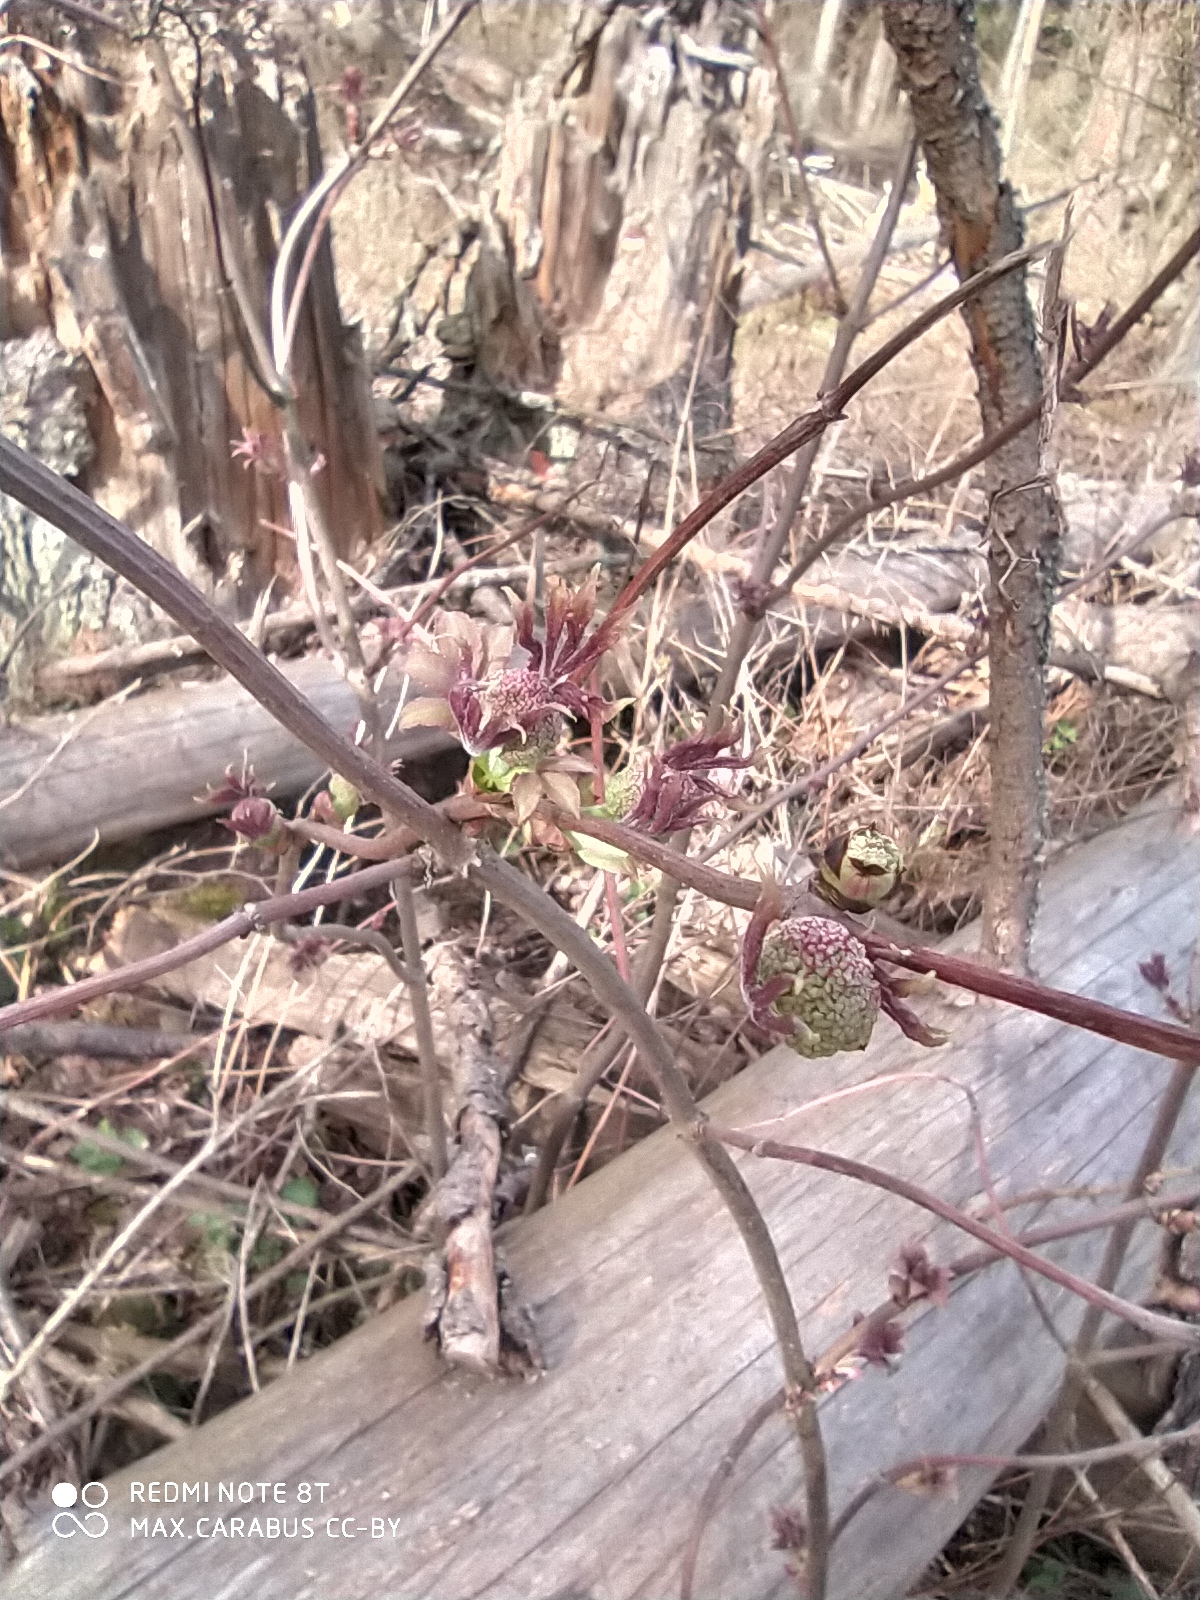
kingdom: Plantae
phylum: Tracheophyta
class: Magnoliopsida
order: Dipsacales
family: Viburnaceae
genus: Sambucus
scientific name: Sambucus racemosa
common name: Red-berried elder
